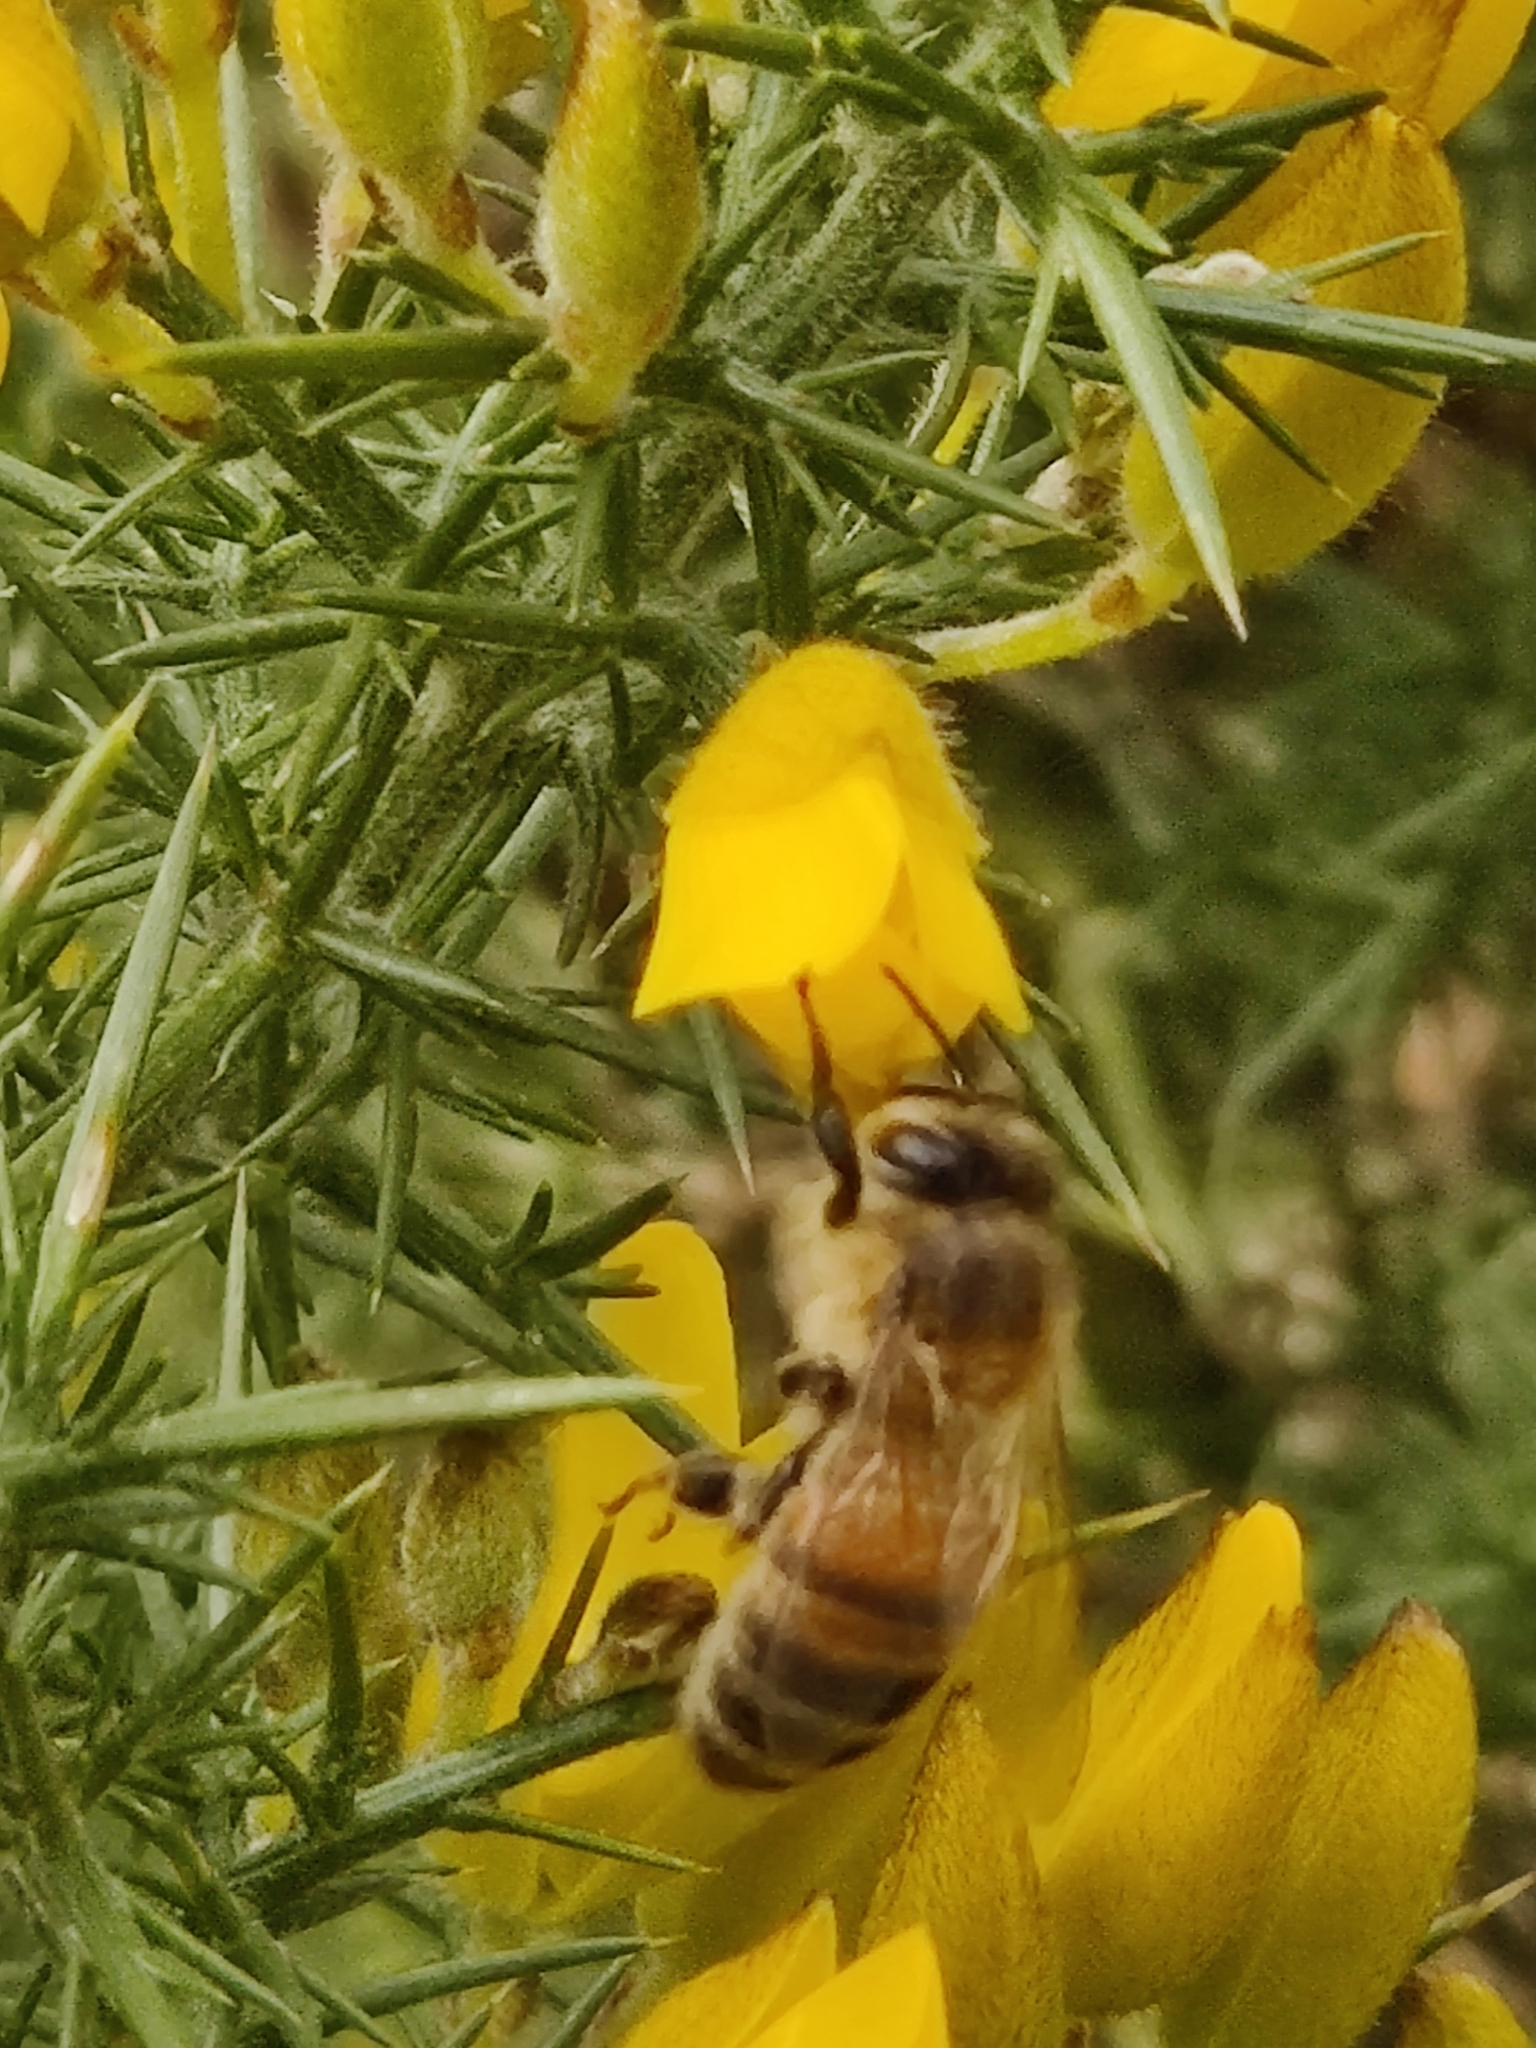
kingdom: Animalia
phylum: Arthropoda
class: Insecta
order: Hymenoptera
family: Apidae
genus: Apis
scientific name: Apis mellifera
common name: Honey bee
